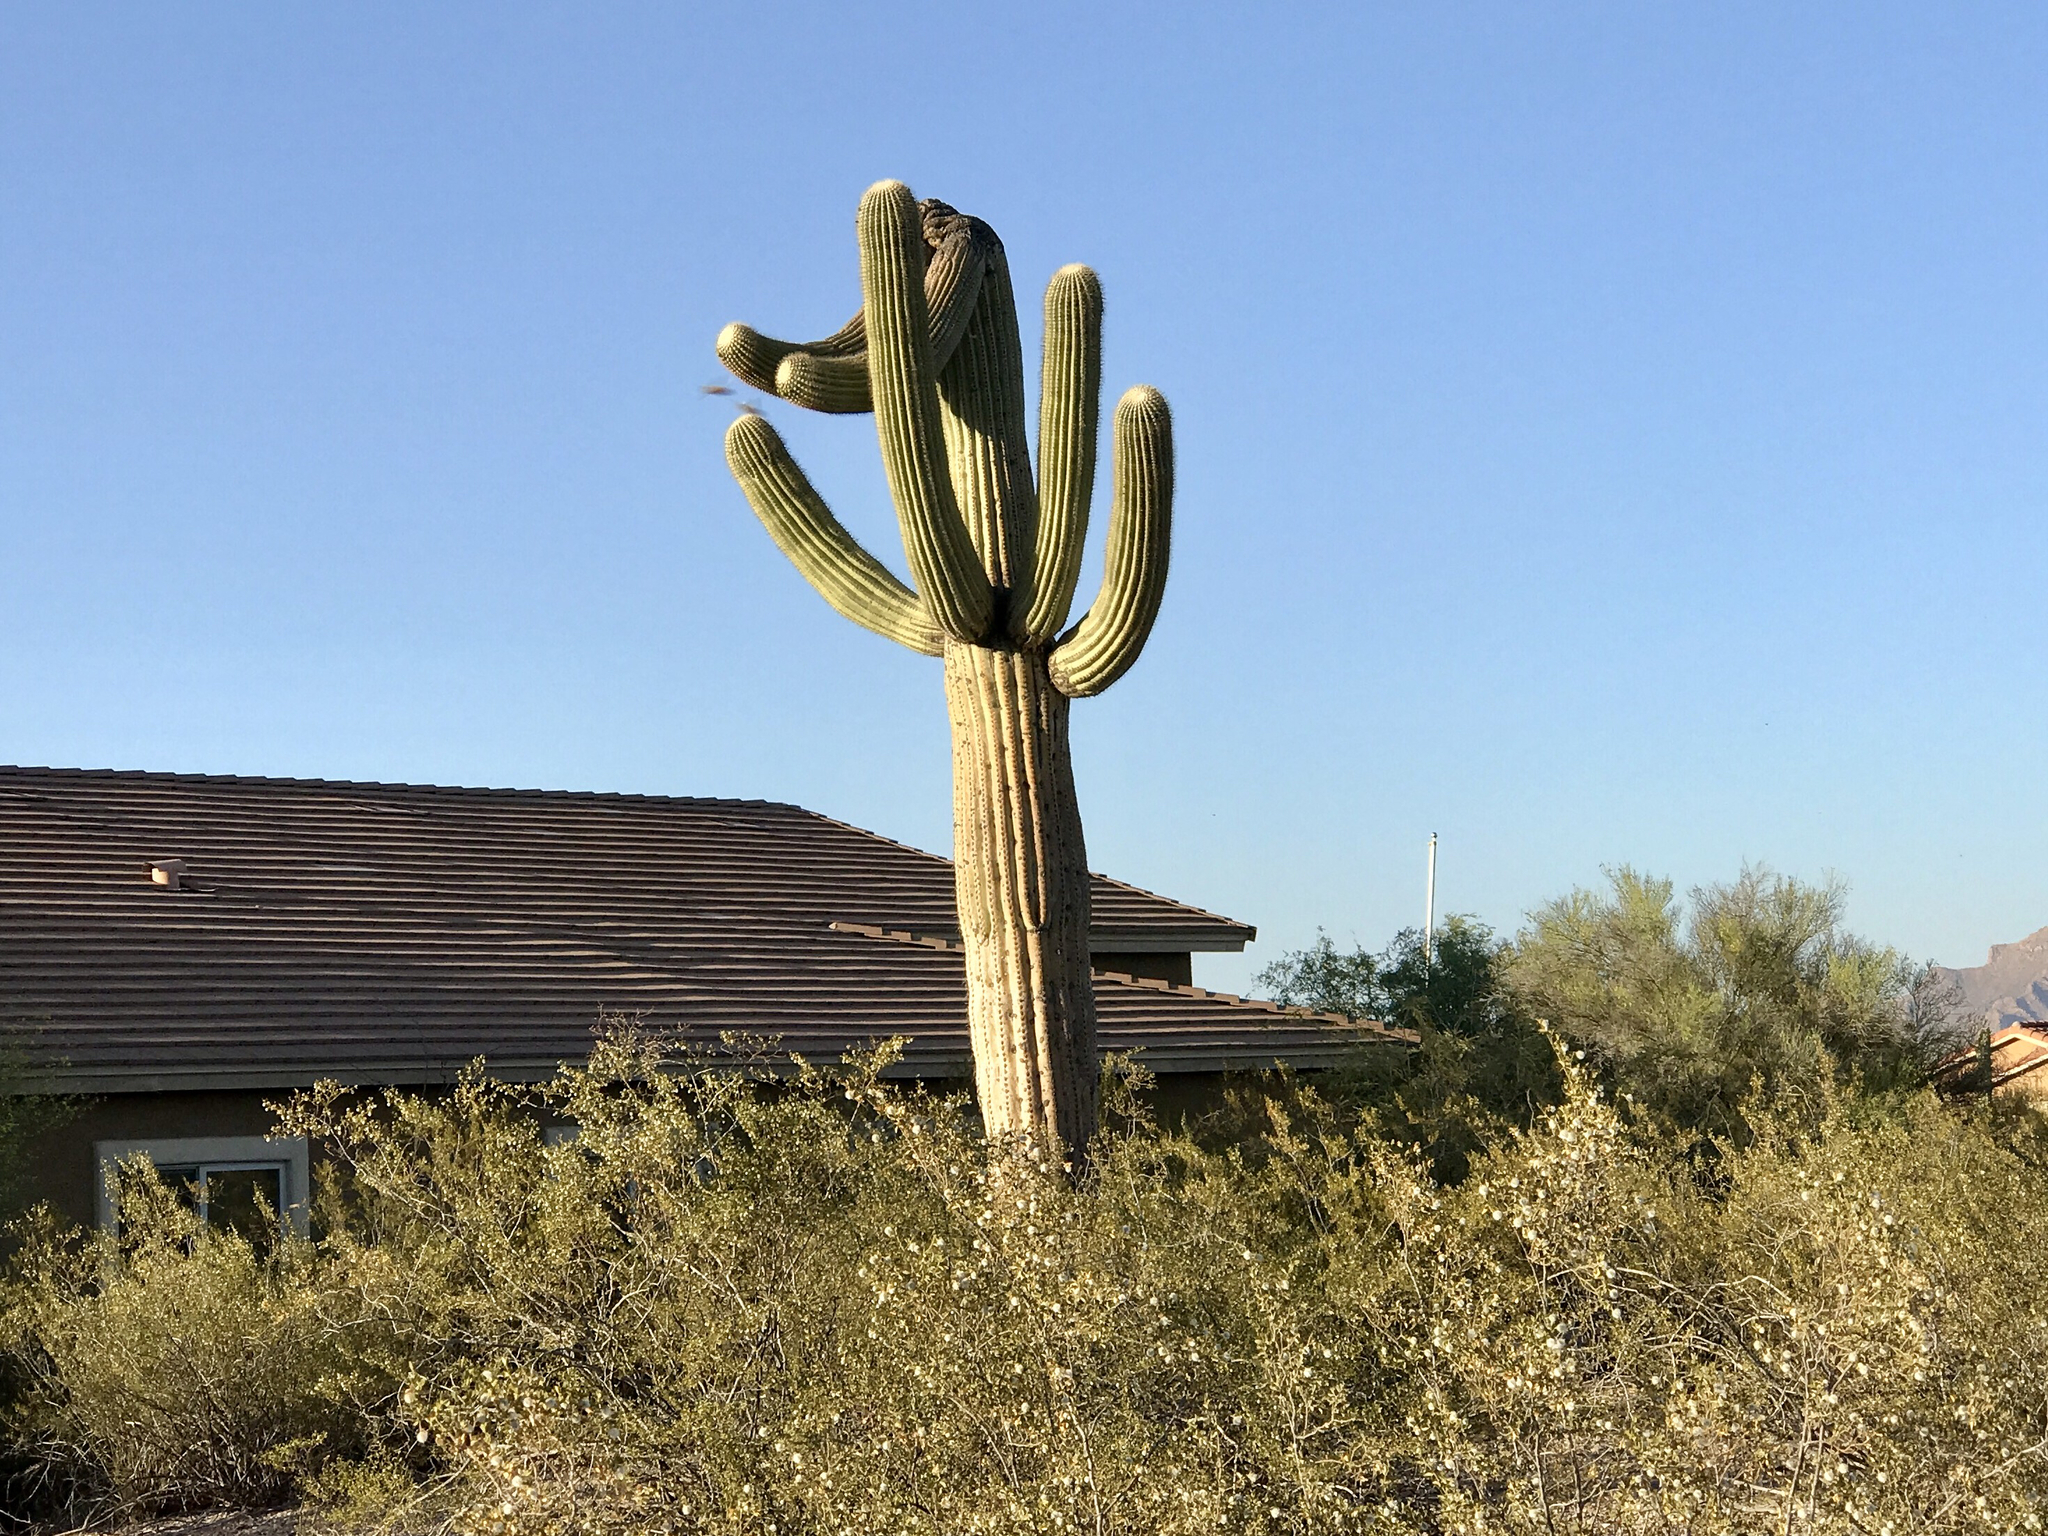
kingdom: Plantae
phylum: Tracheophyta
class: Magnoliopsida
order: Caryophyllales
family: Cactaceae
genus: Carnegiea
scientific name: Carnegiea gigantea
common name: Saguaro
